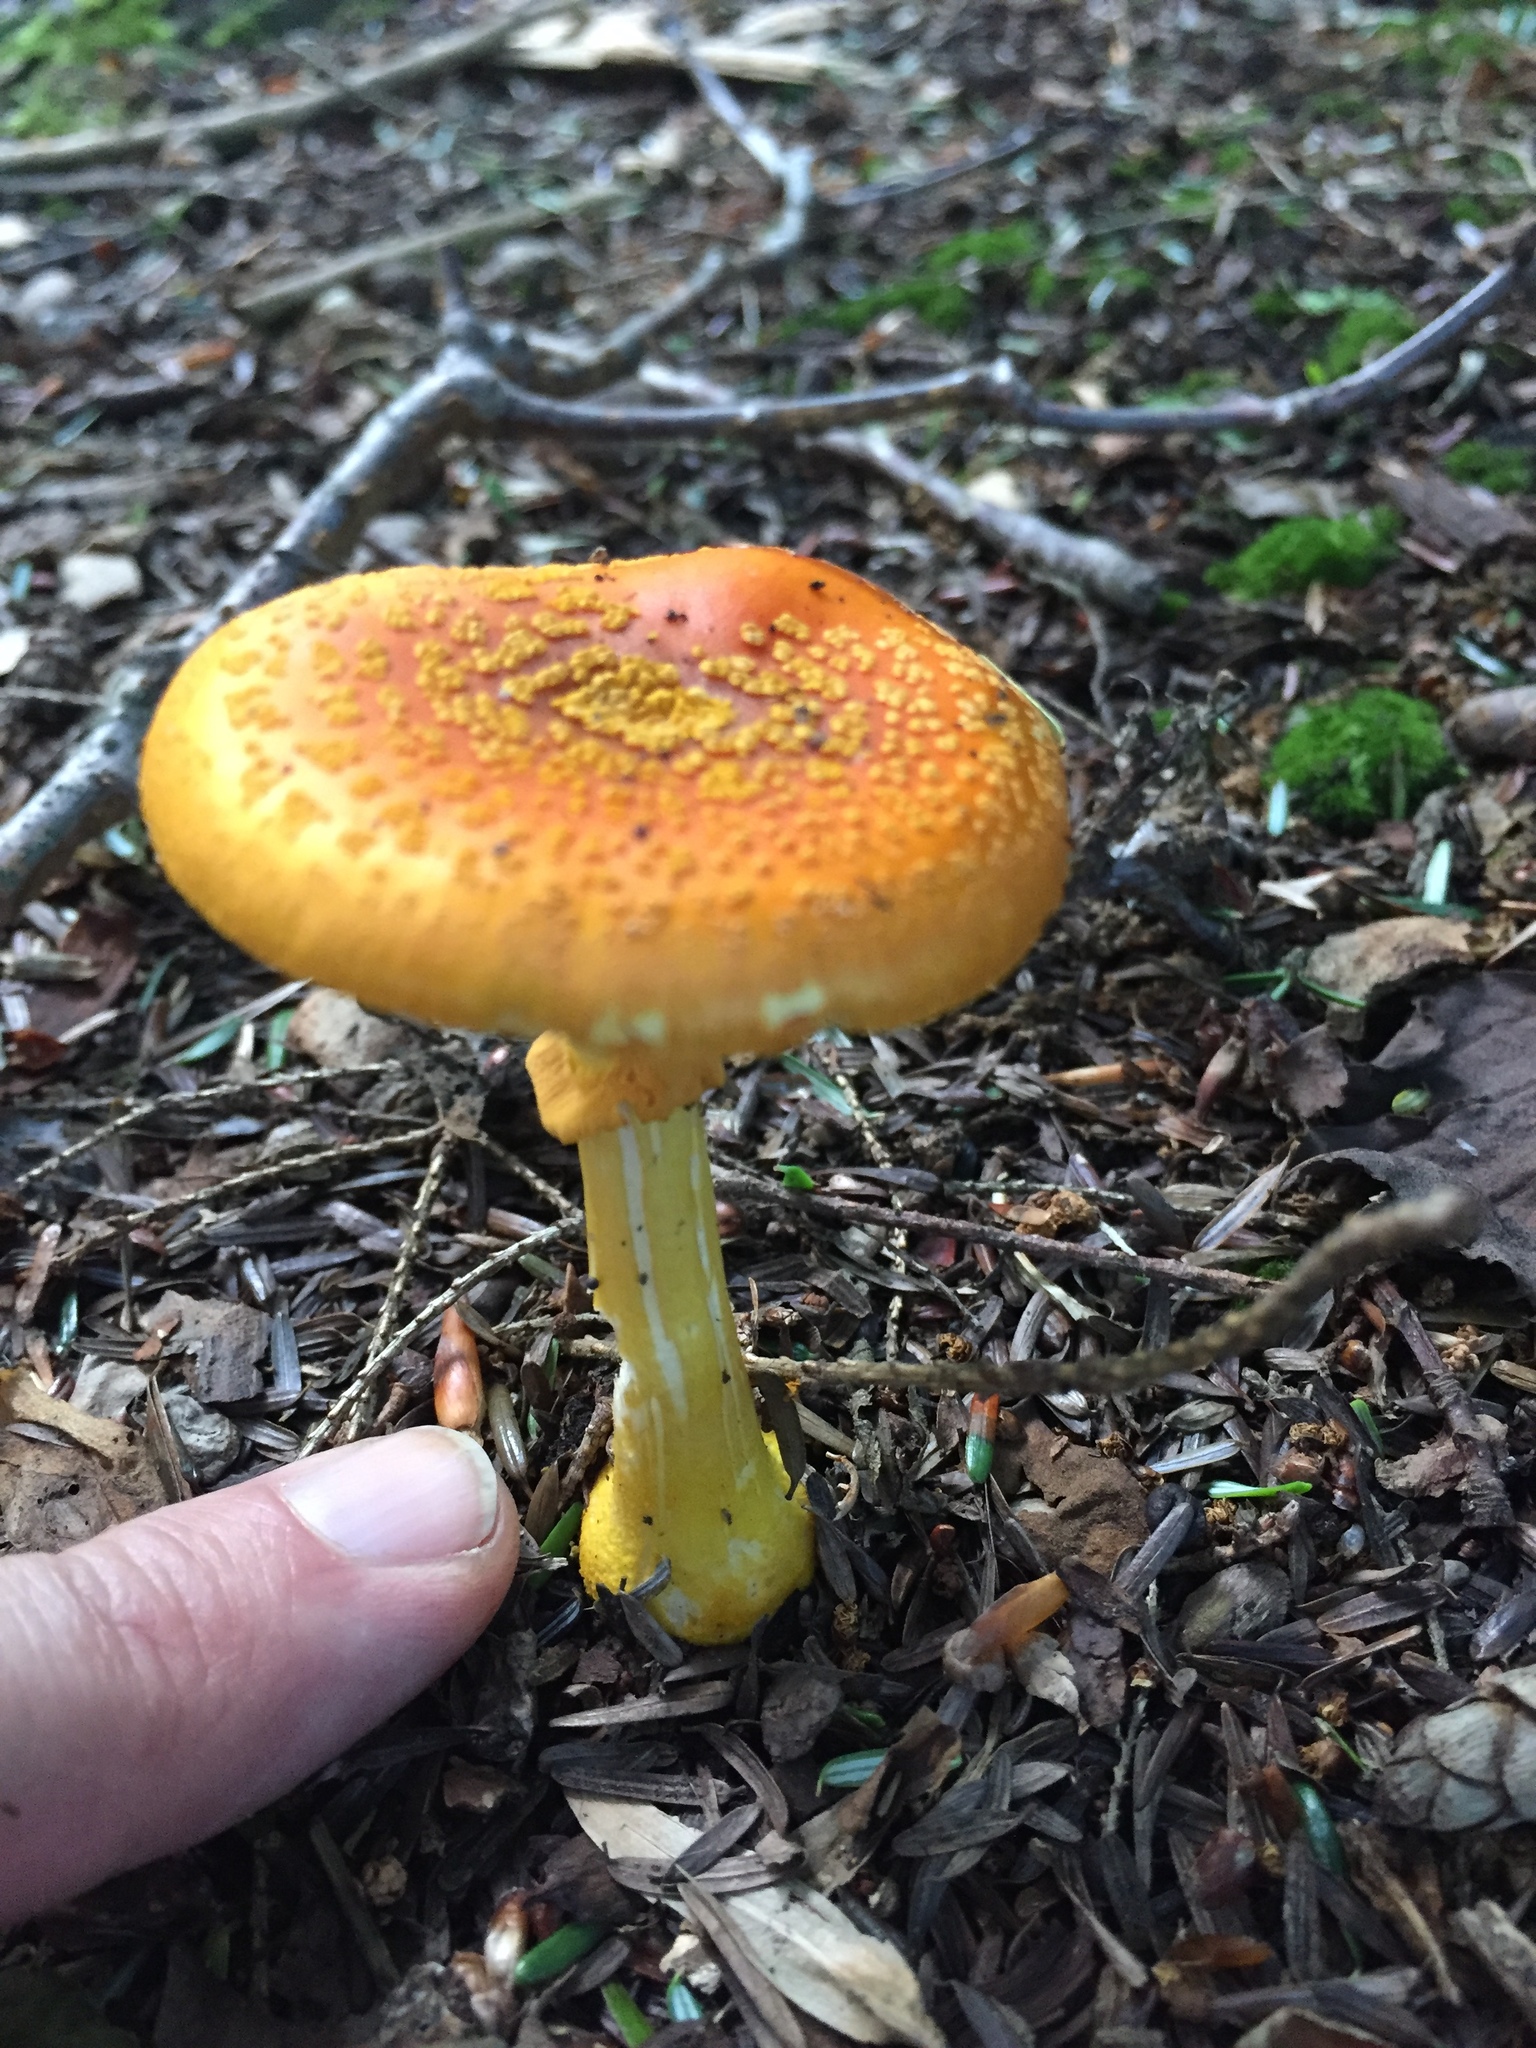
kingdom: Fungi
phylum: Basidiomycota
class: Agaricomycetes
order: Agaricales
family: Amanitaceae
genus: Amanita
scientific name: Amanita flavoconia
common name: Yellow patches
